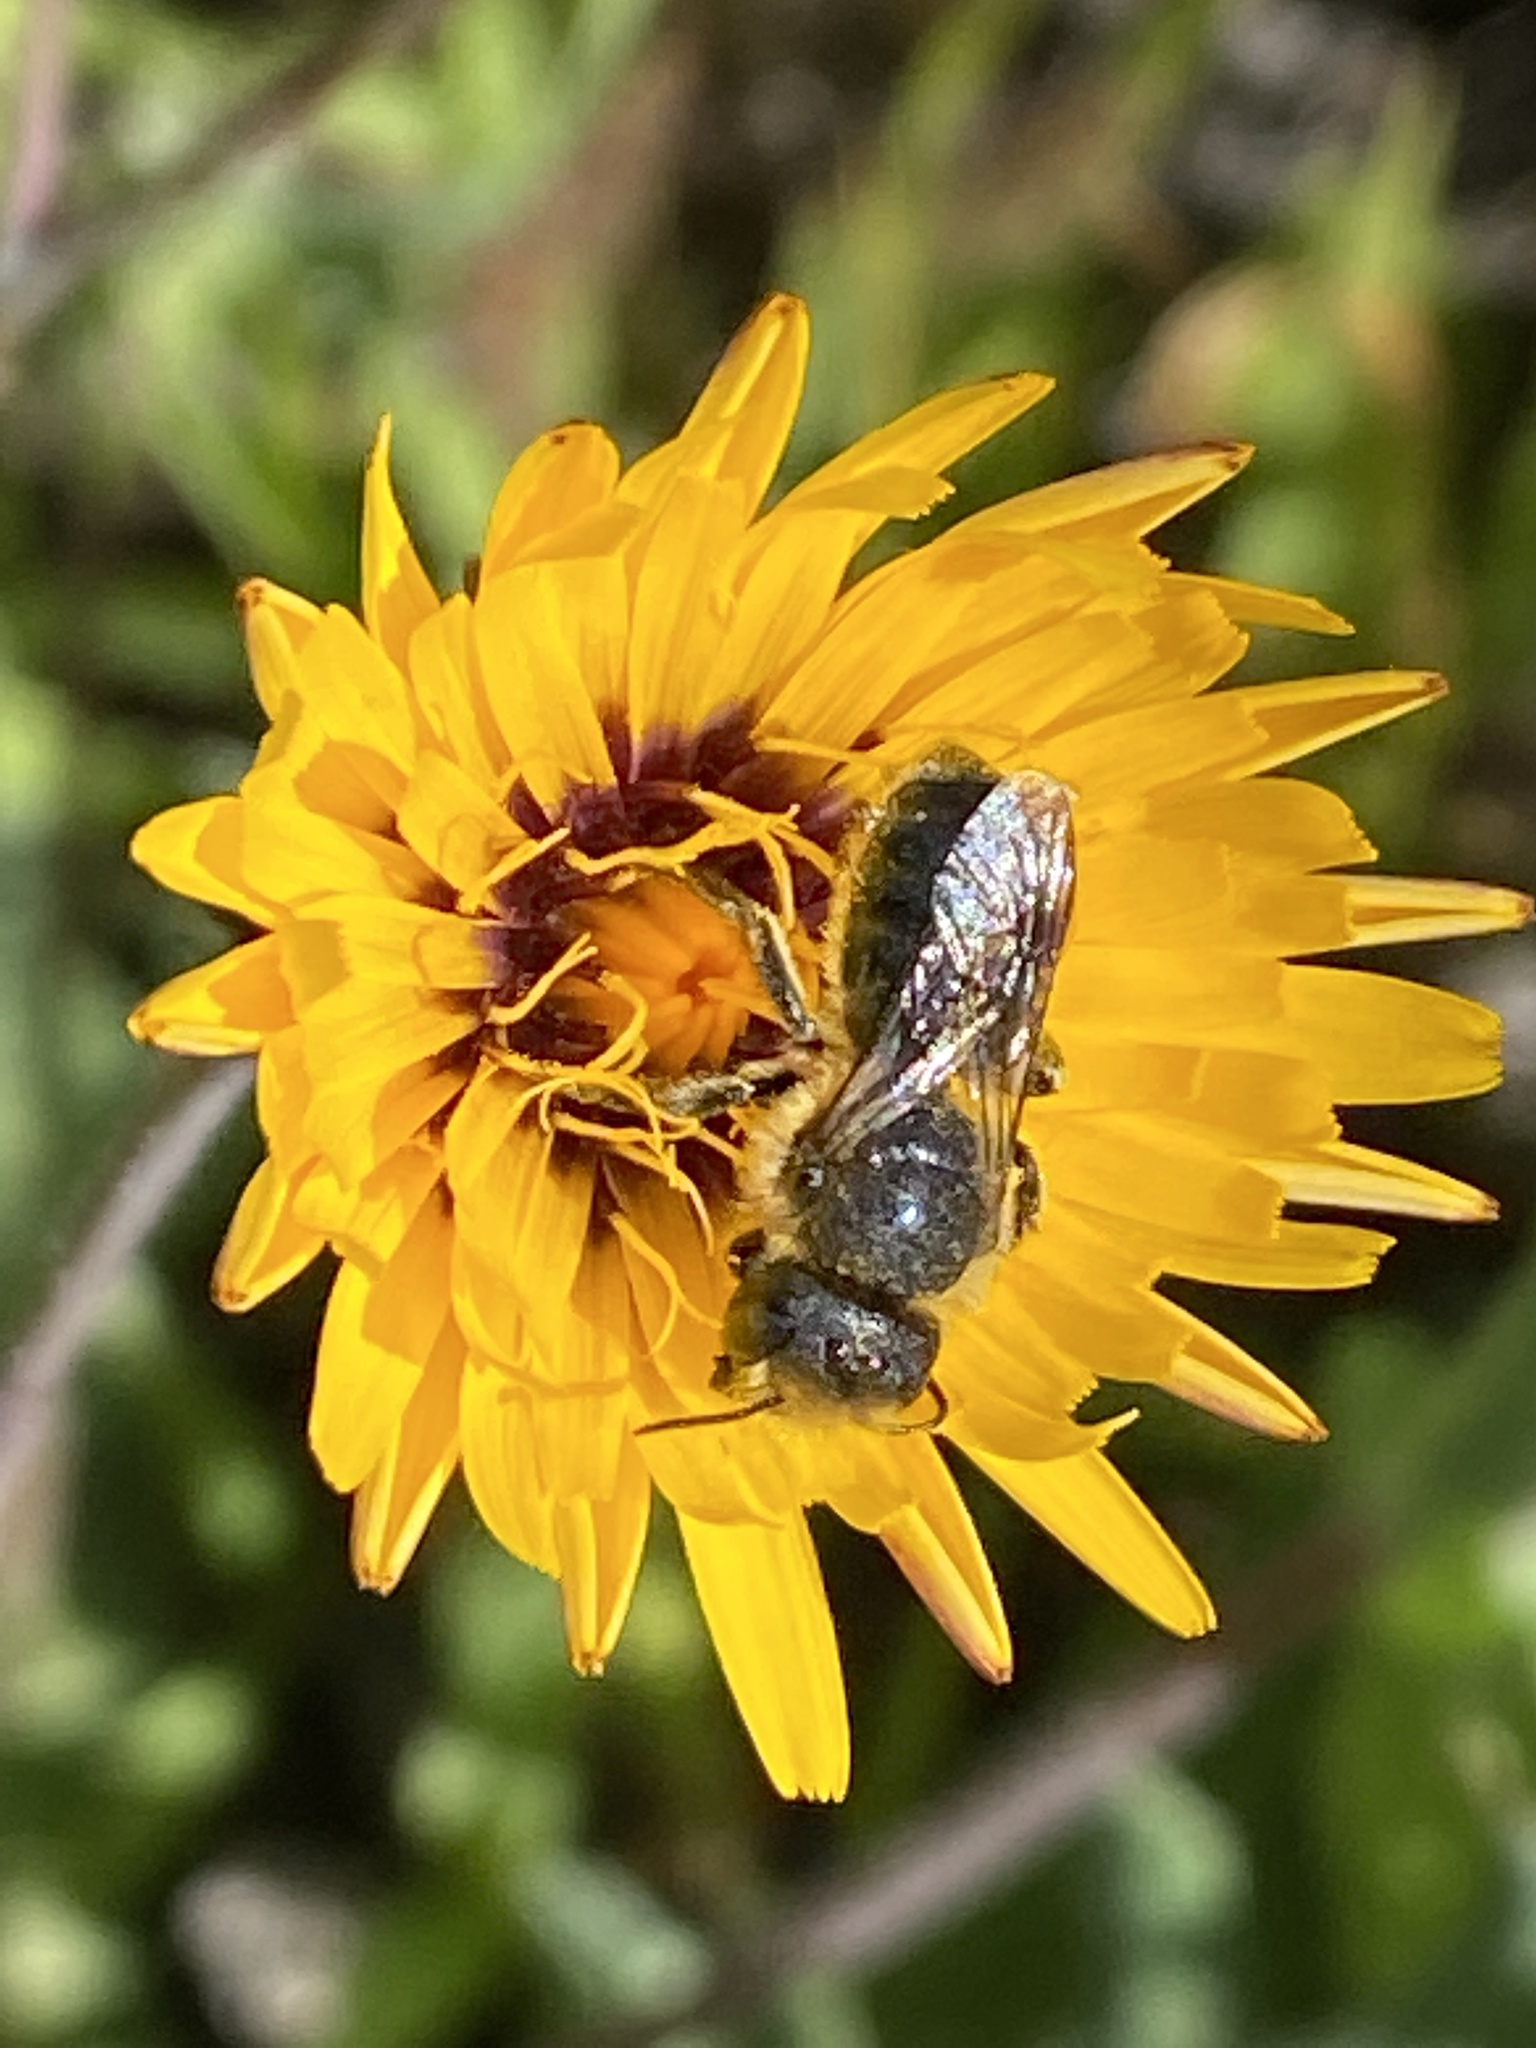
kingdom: Animalia
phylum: Arthropoda
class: Insecta
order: Hymenoptera
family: Megachilidae
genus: Osmia
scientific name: Osmia latreillei
